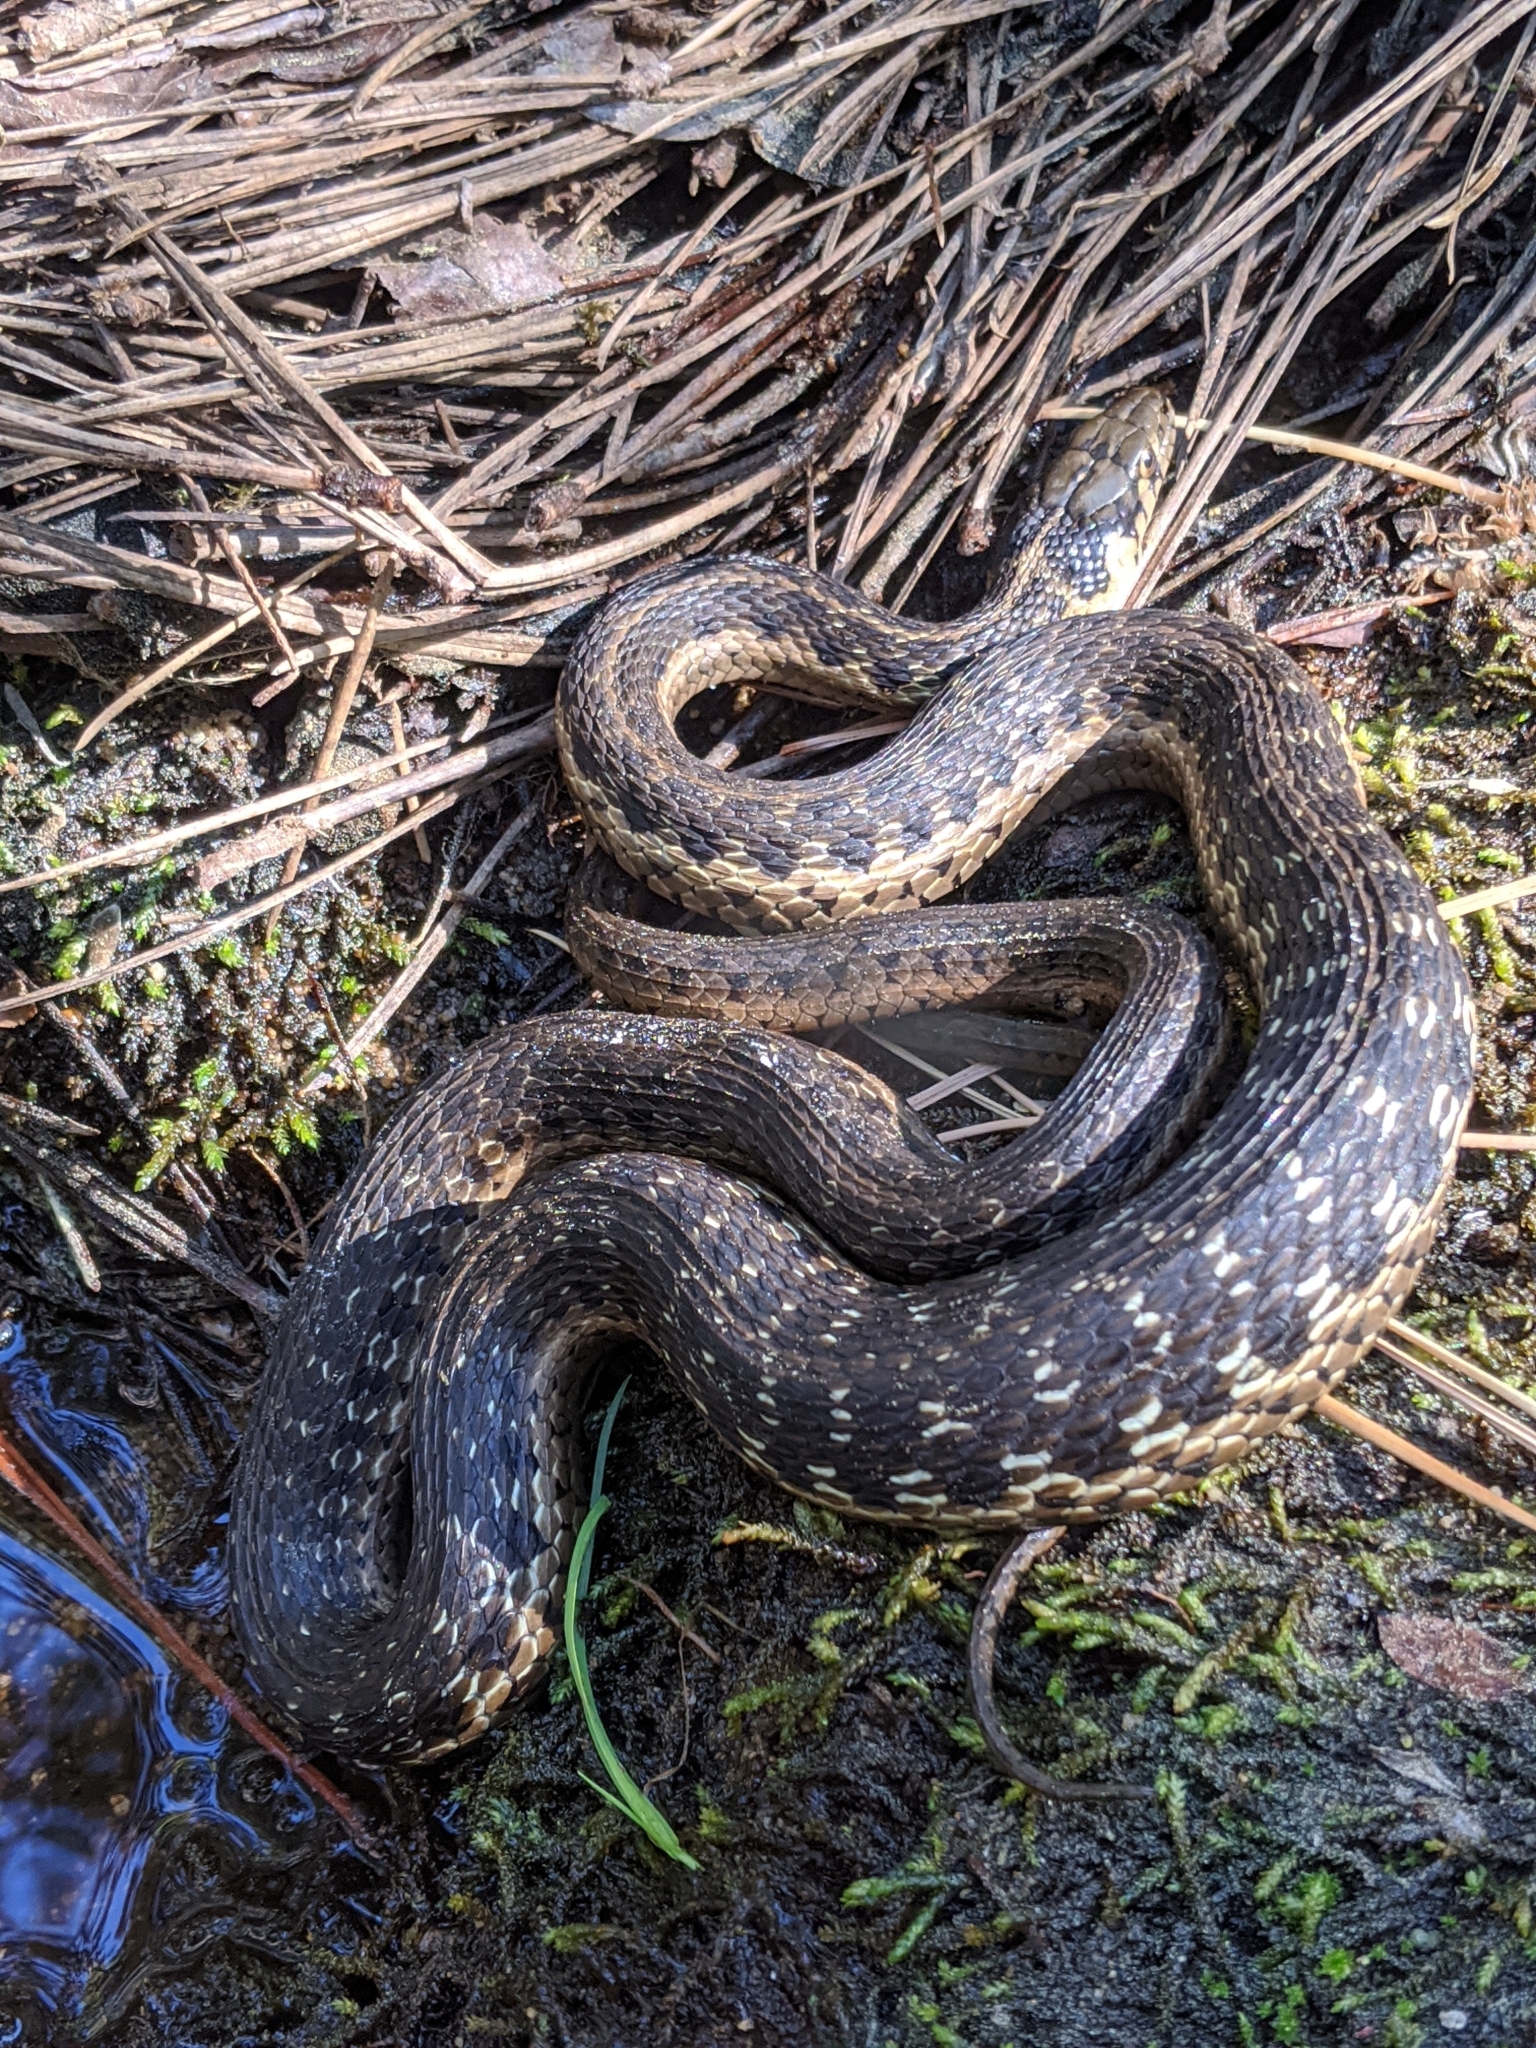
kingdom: Animalia
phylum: Chordata
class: Squamata
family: Colubridae
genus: Thamnophis
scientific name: Thamnophis couchii
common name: Western aquatic garter snake
